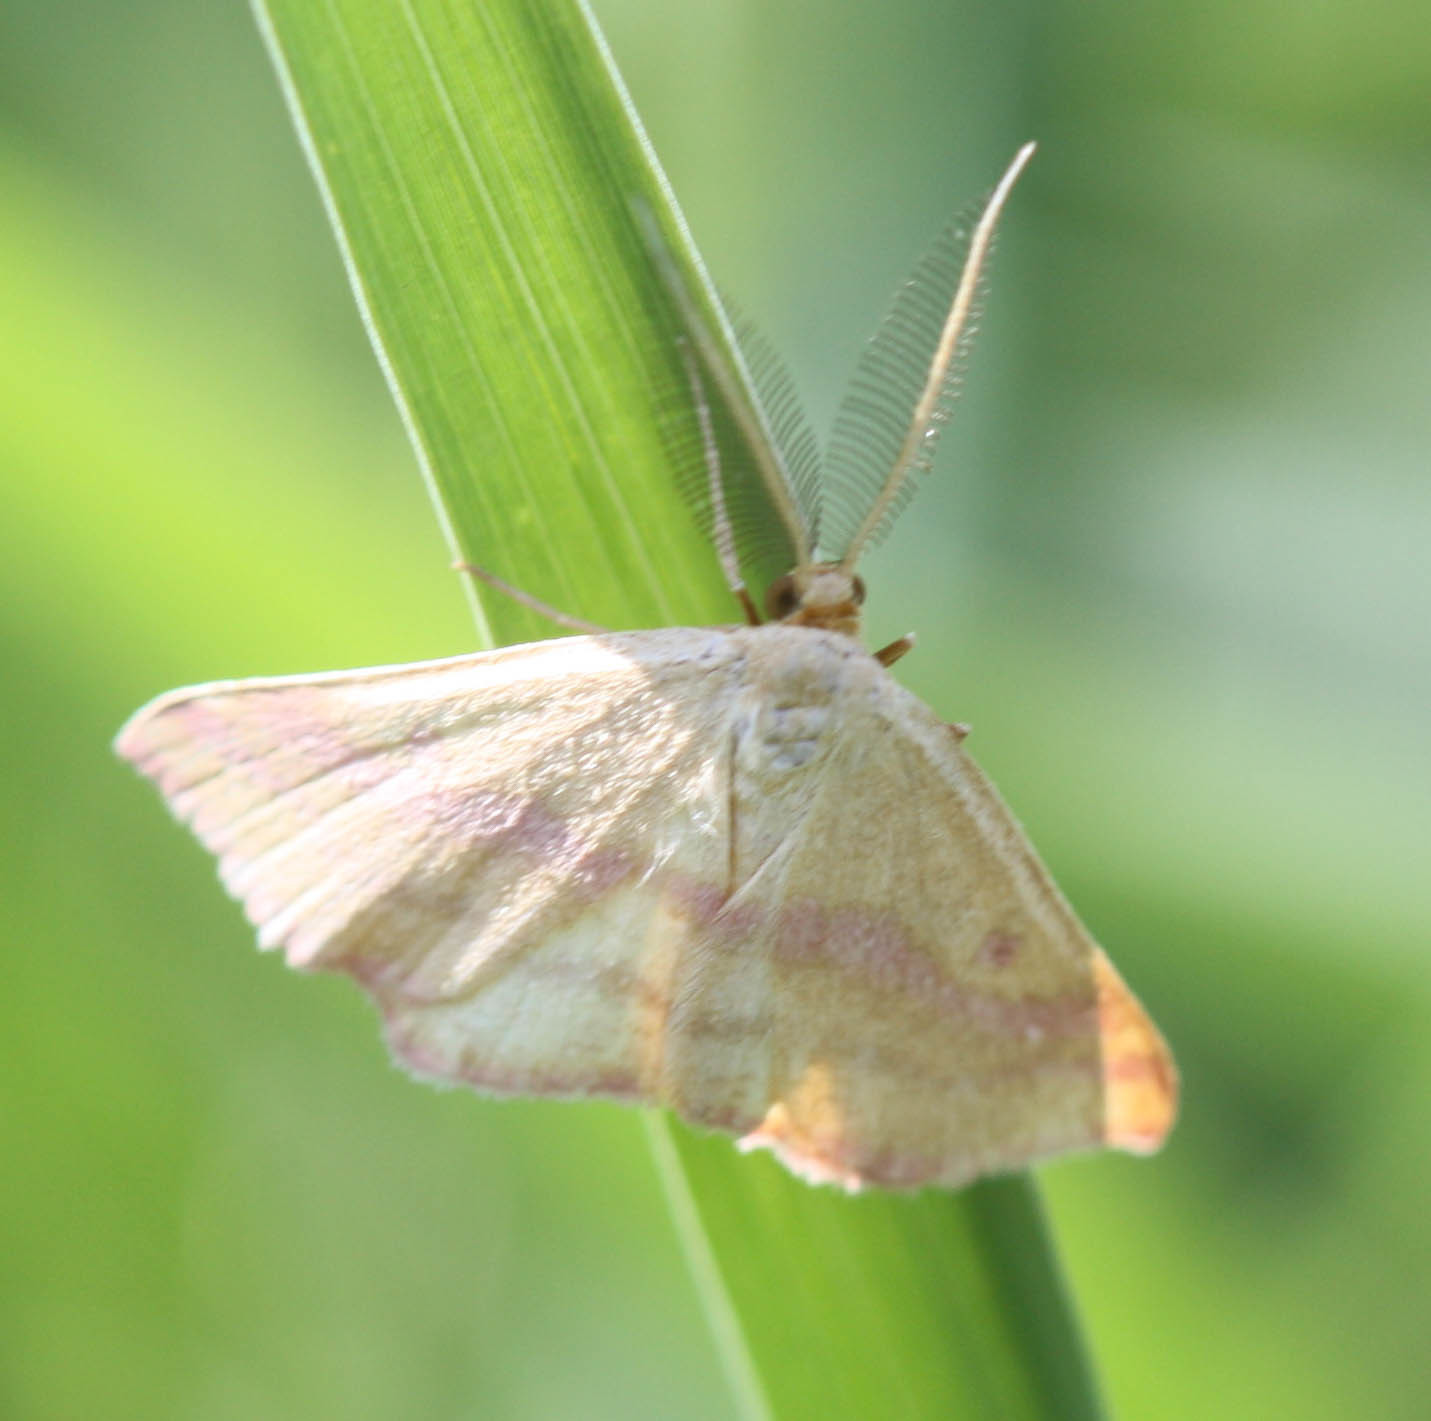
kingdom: Animalia
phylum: Arthropoda
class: Insecta
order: Lepidoptera
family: Geometridae
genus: Haematopis
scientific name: Haematopis grataria
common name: Chickweed geometer
